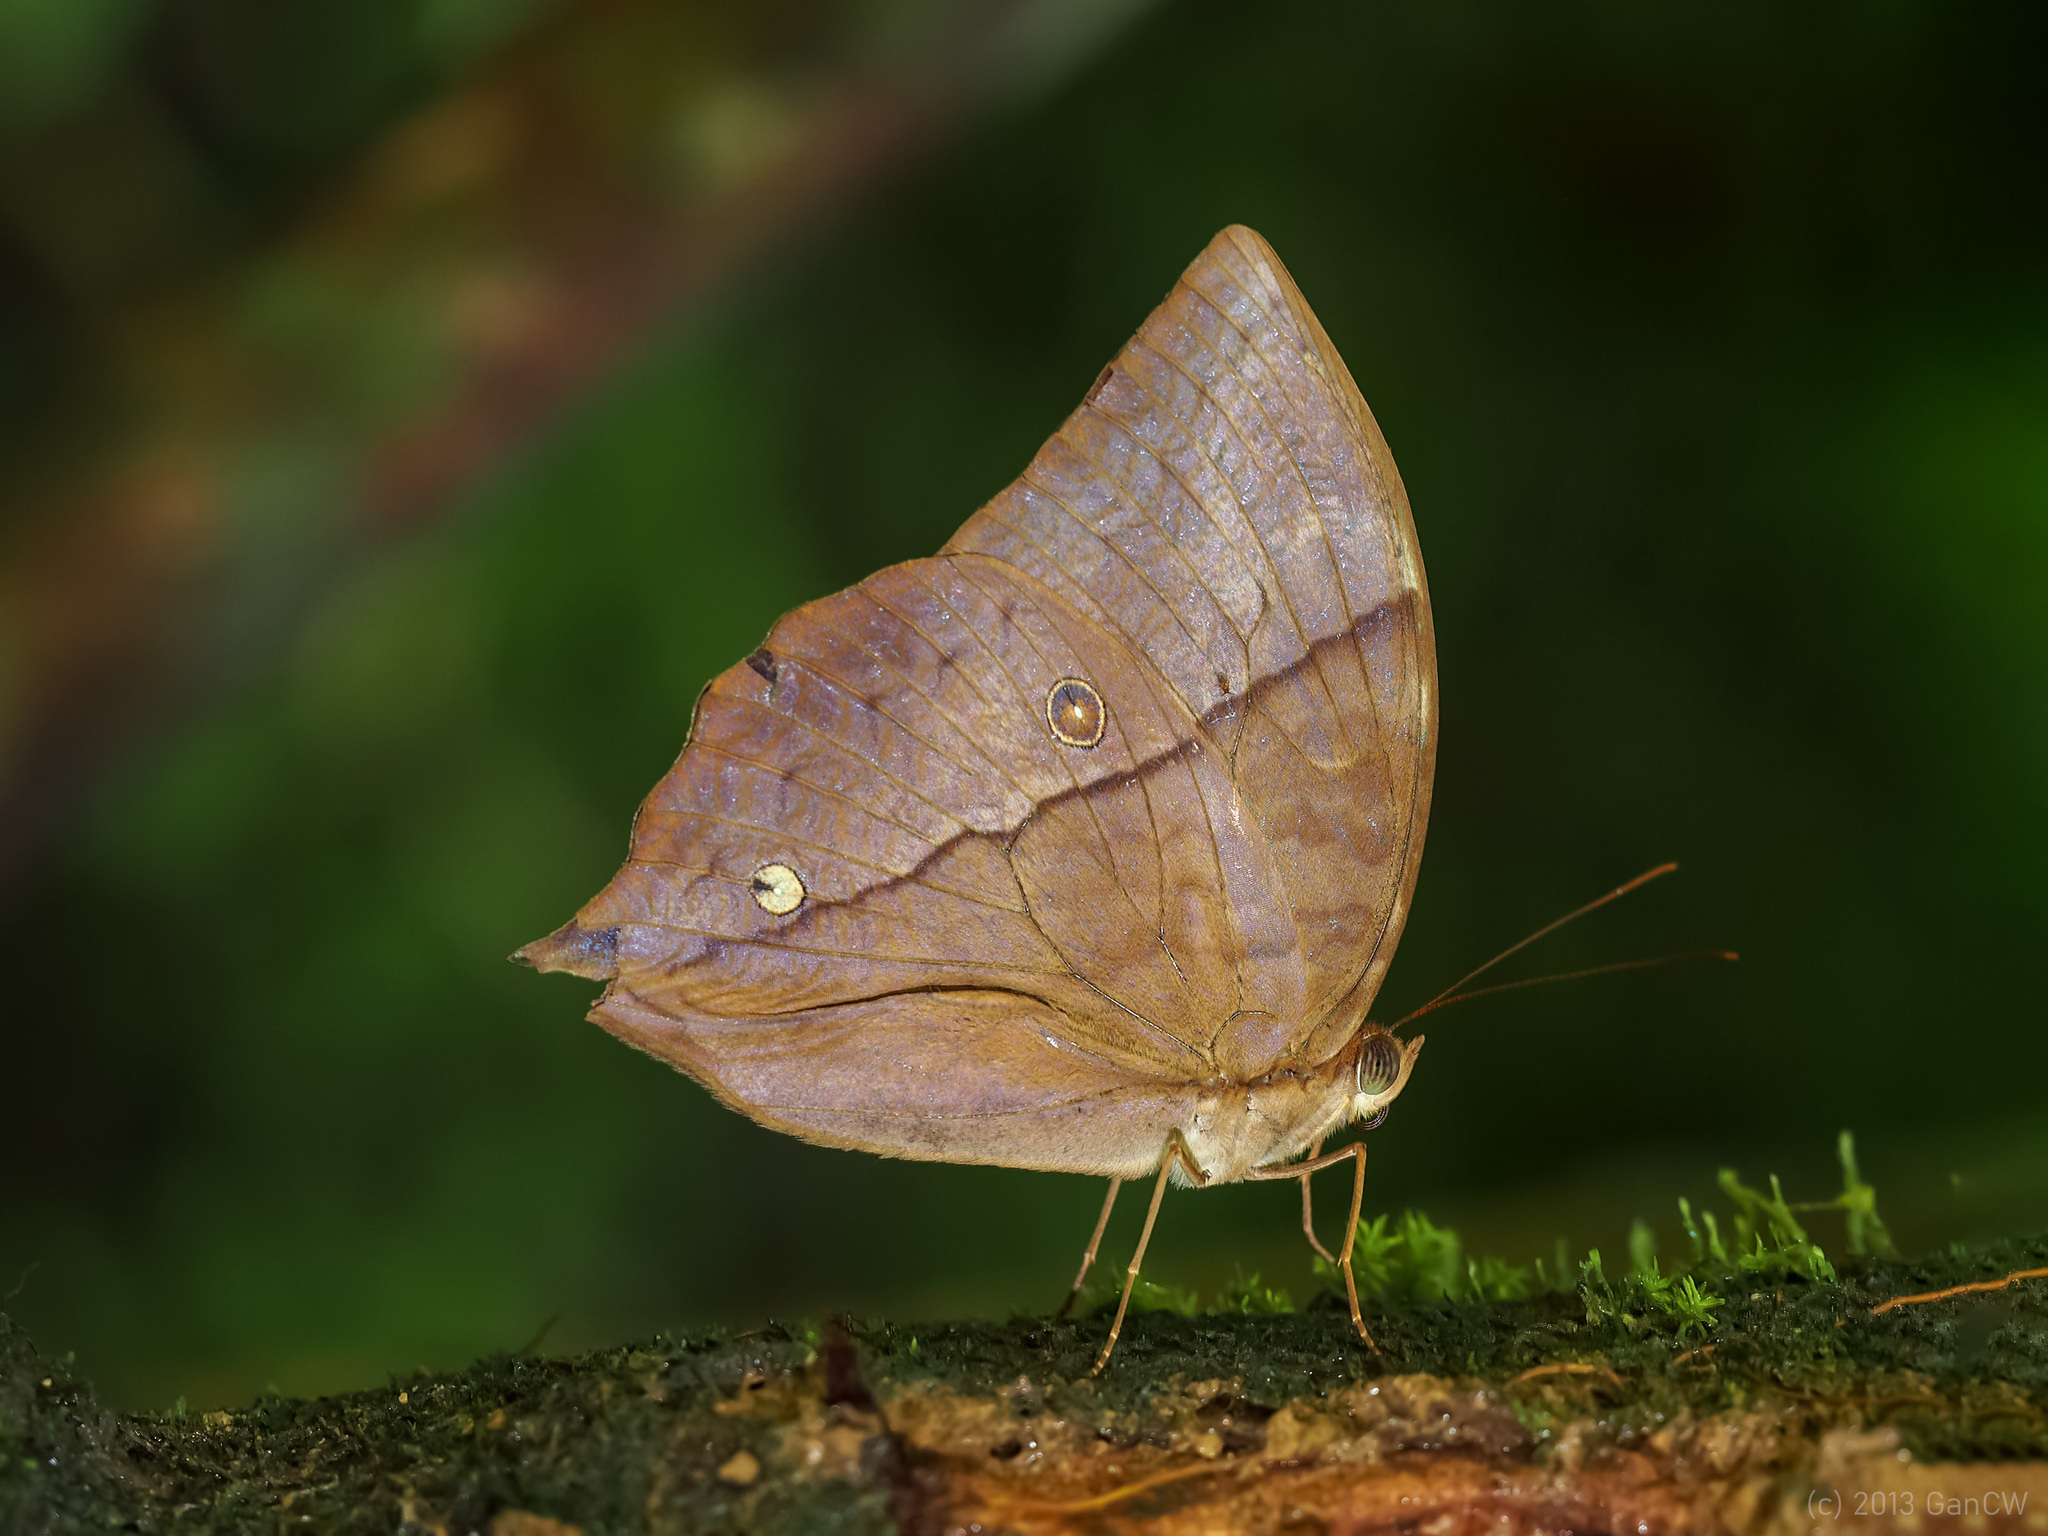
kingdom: Animalia
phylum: Arthropoda
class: Insecta
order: Lepidoptera
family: Nymphalidae
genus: Zeuxidia
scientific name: Zeuxidia doubledaii
